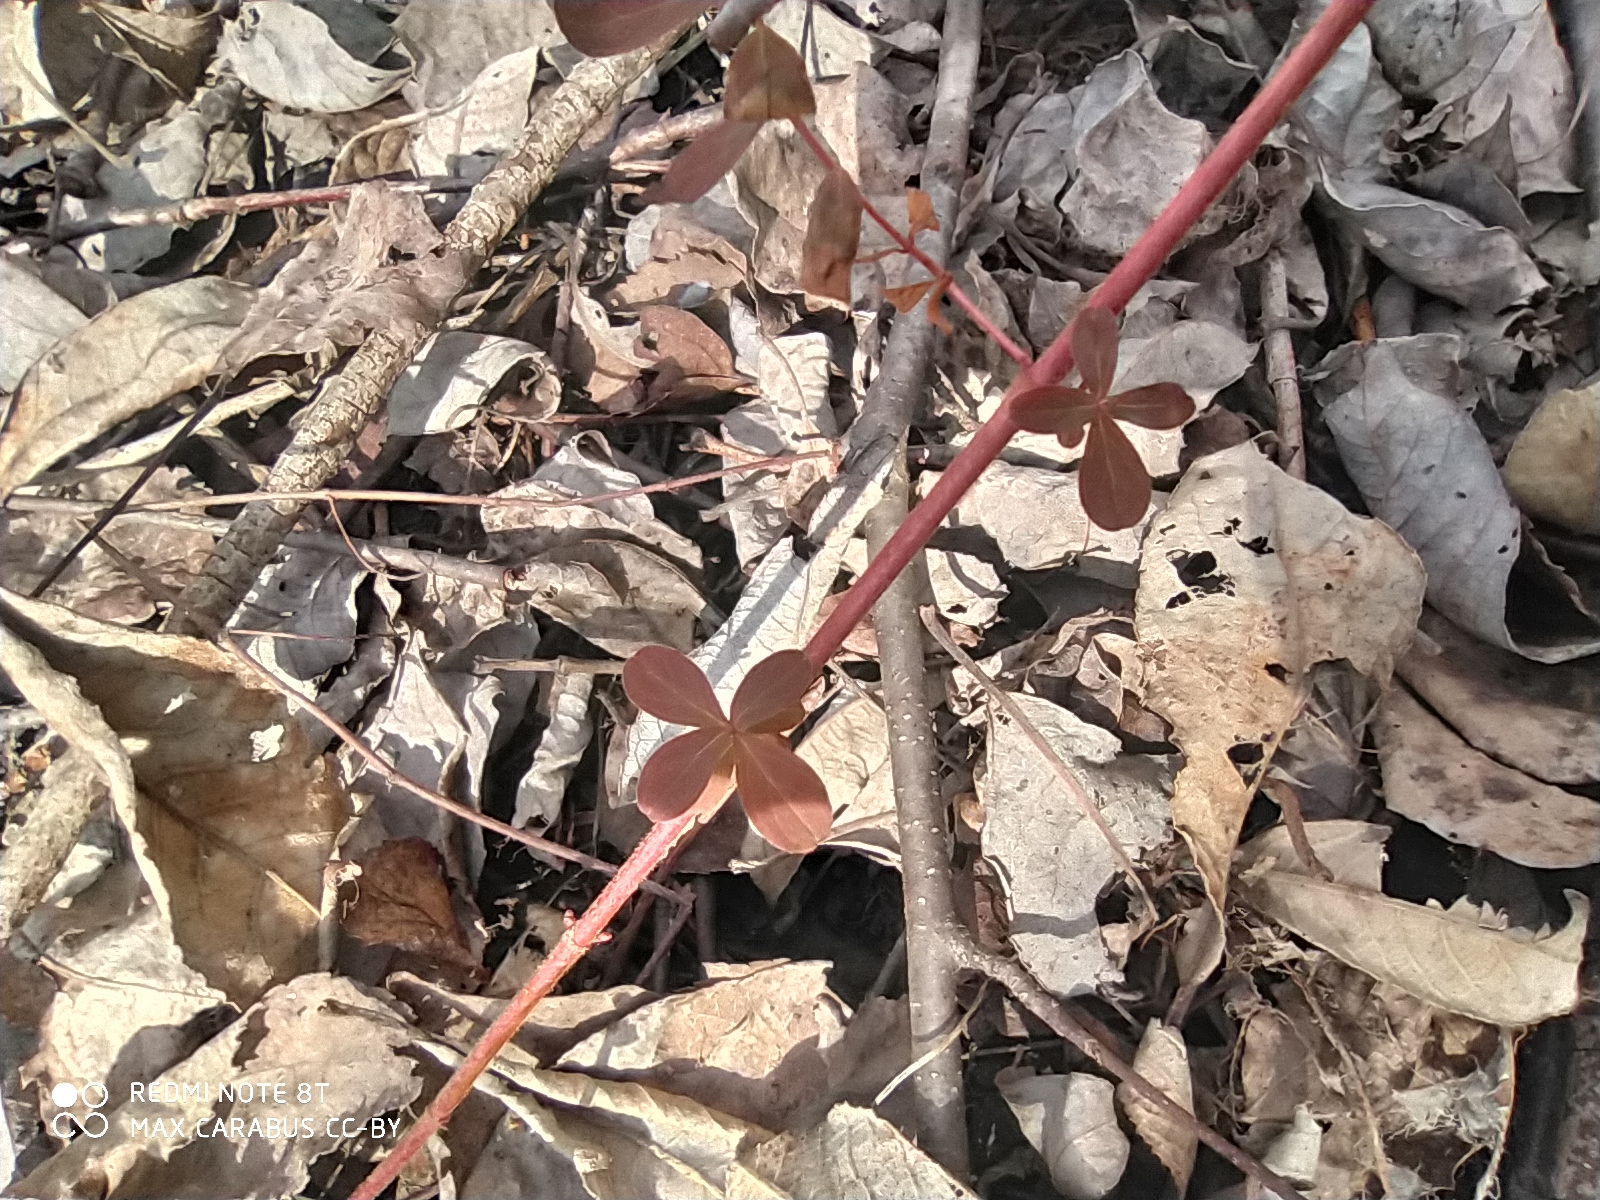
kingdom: Plantae
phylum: Tracheophyta
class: Magnoliopsida
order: Malpighiales
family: Hypericaceae
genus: Hypericum
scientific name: Hypericum perforatum
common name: Common st. johnswort
